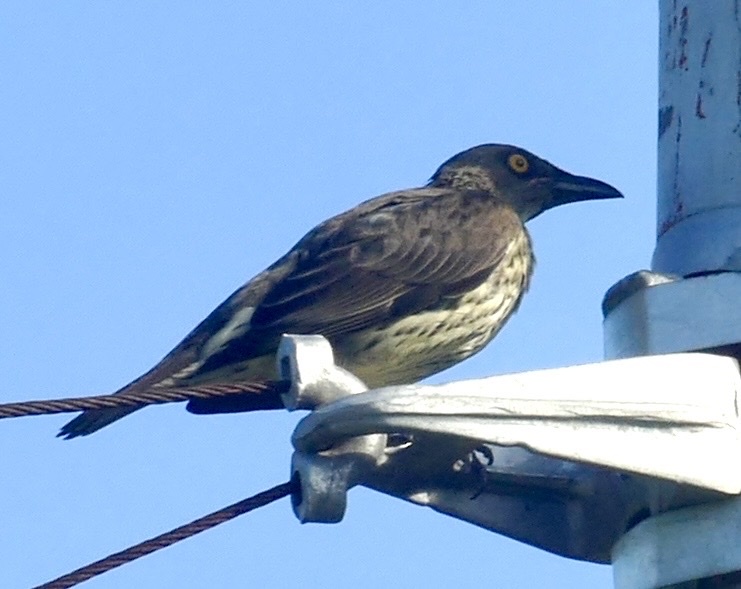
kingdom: Animalia
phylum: Chordata
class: Aves
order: Passeriformes
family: Sturnidae
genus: Aplonis
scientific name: Aplonis cantoroides
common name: Singing starling
